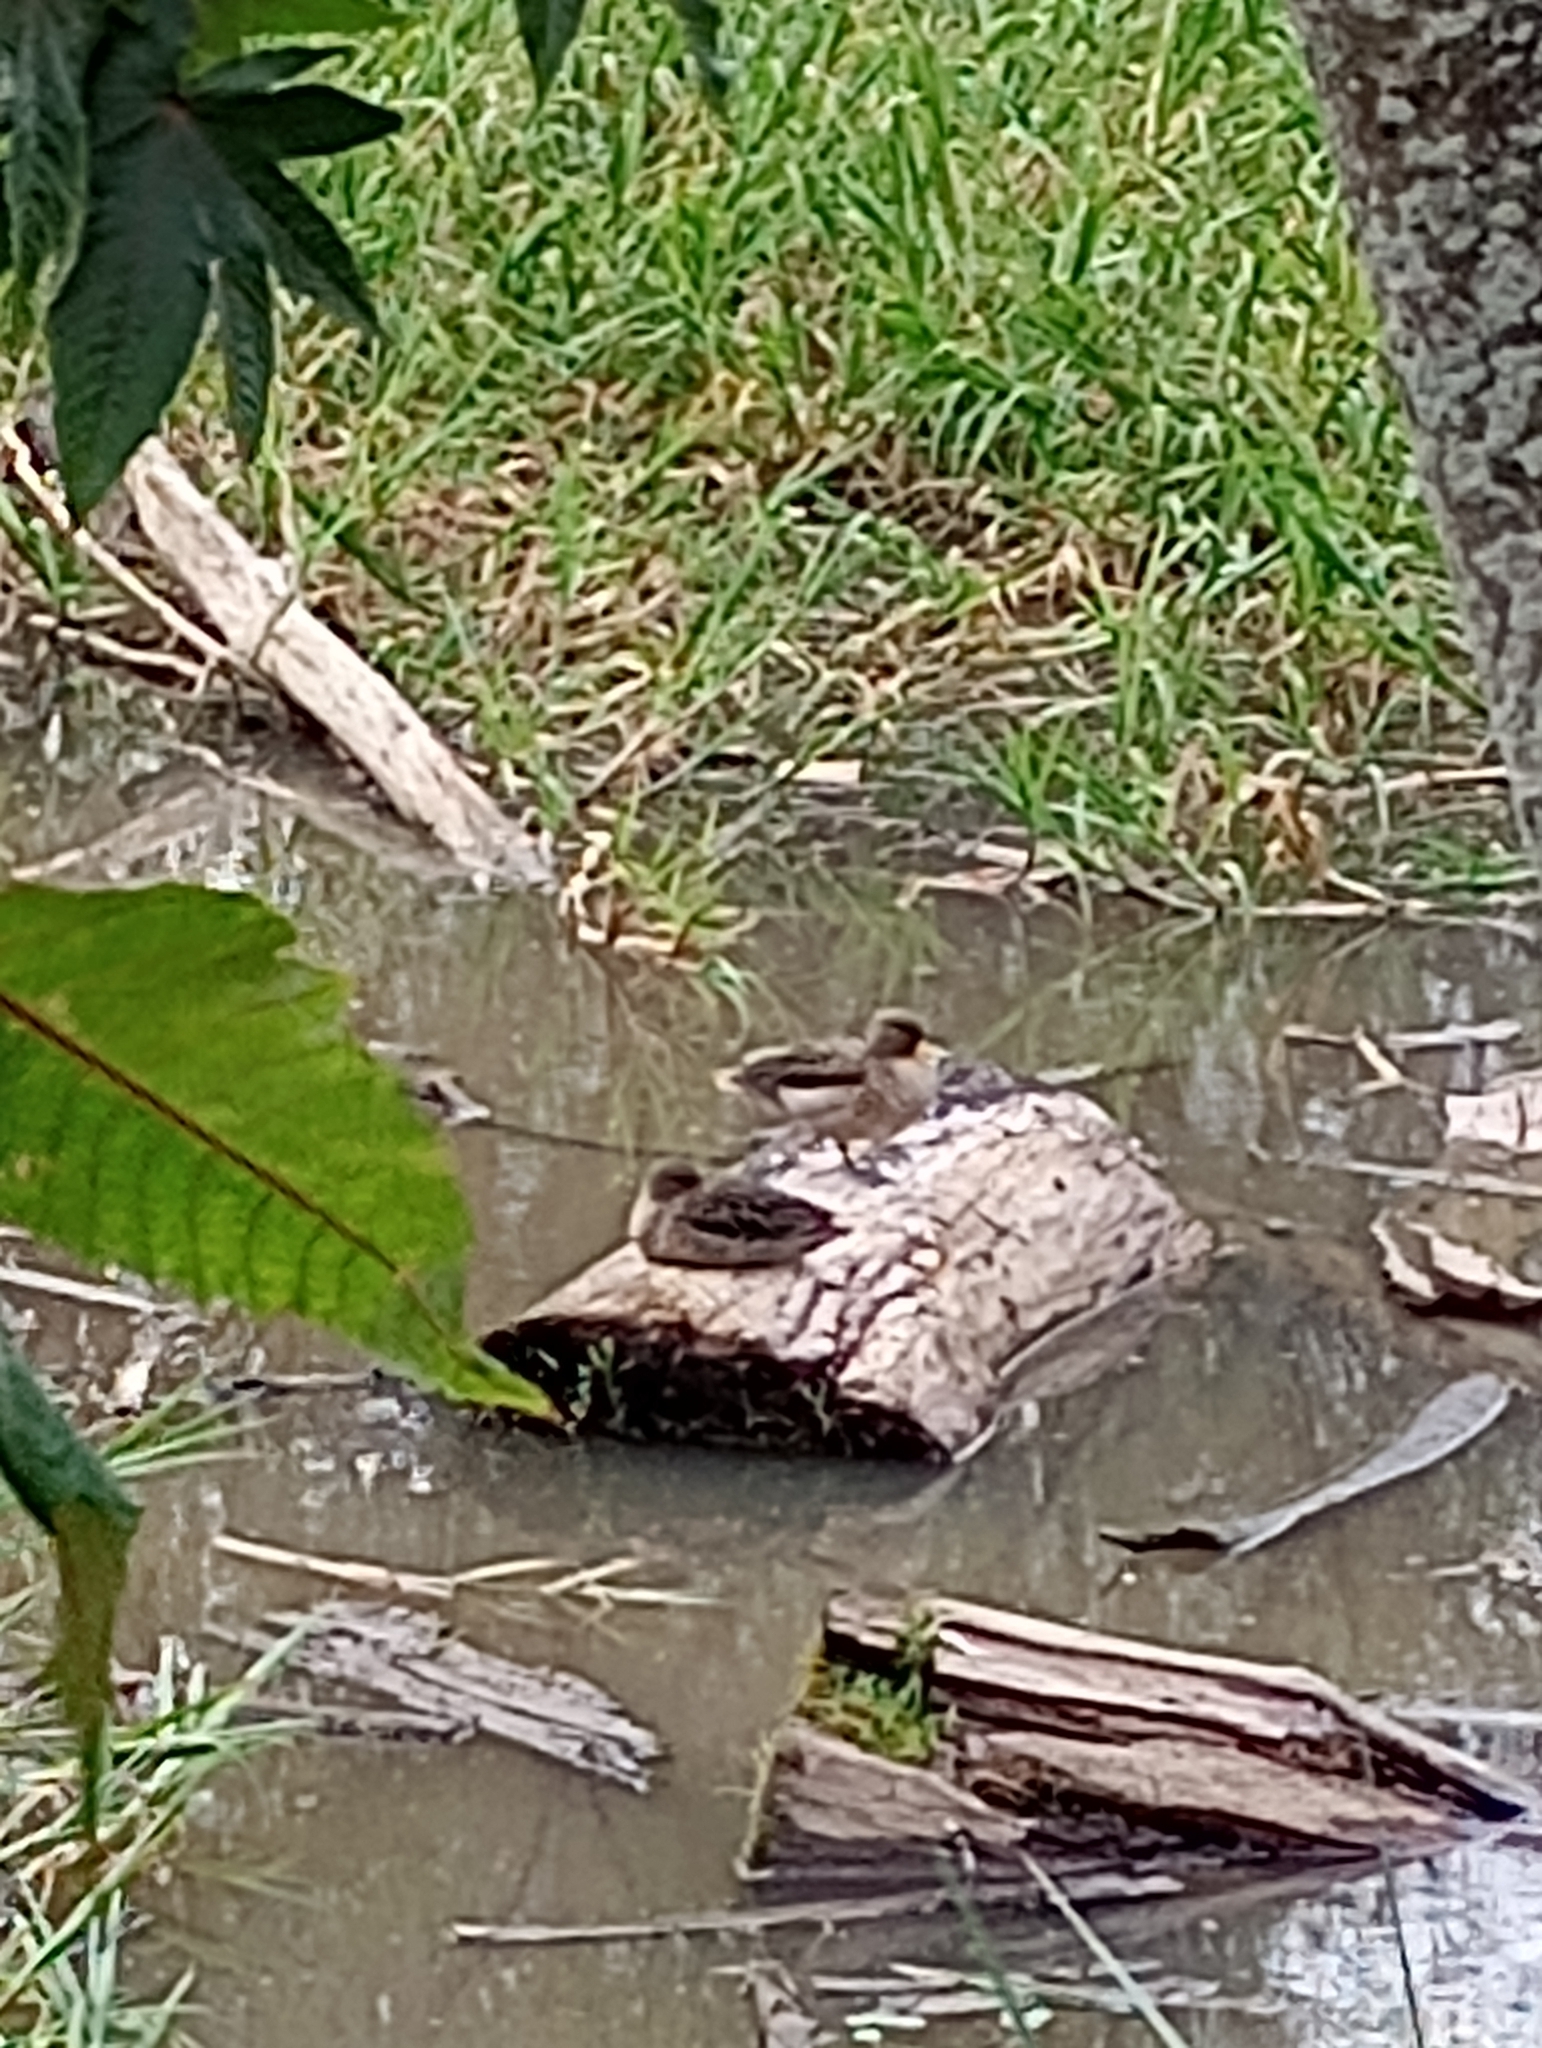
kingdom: Animalia
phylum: Chordata
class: Aves
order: Anseriformes
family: Anatidae
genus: Anas
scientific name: Anas flavirostris
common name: Yellow-billed teal
